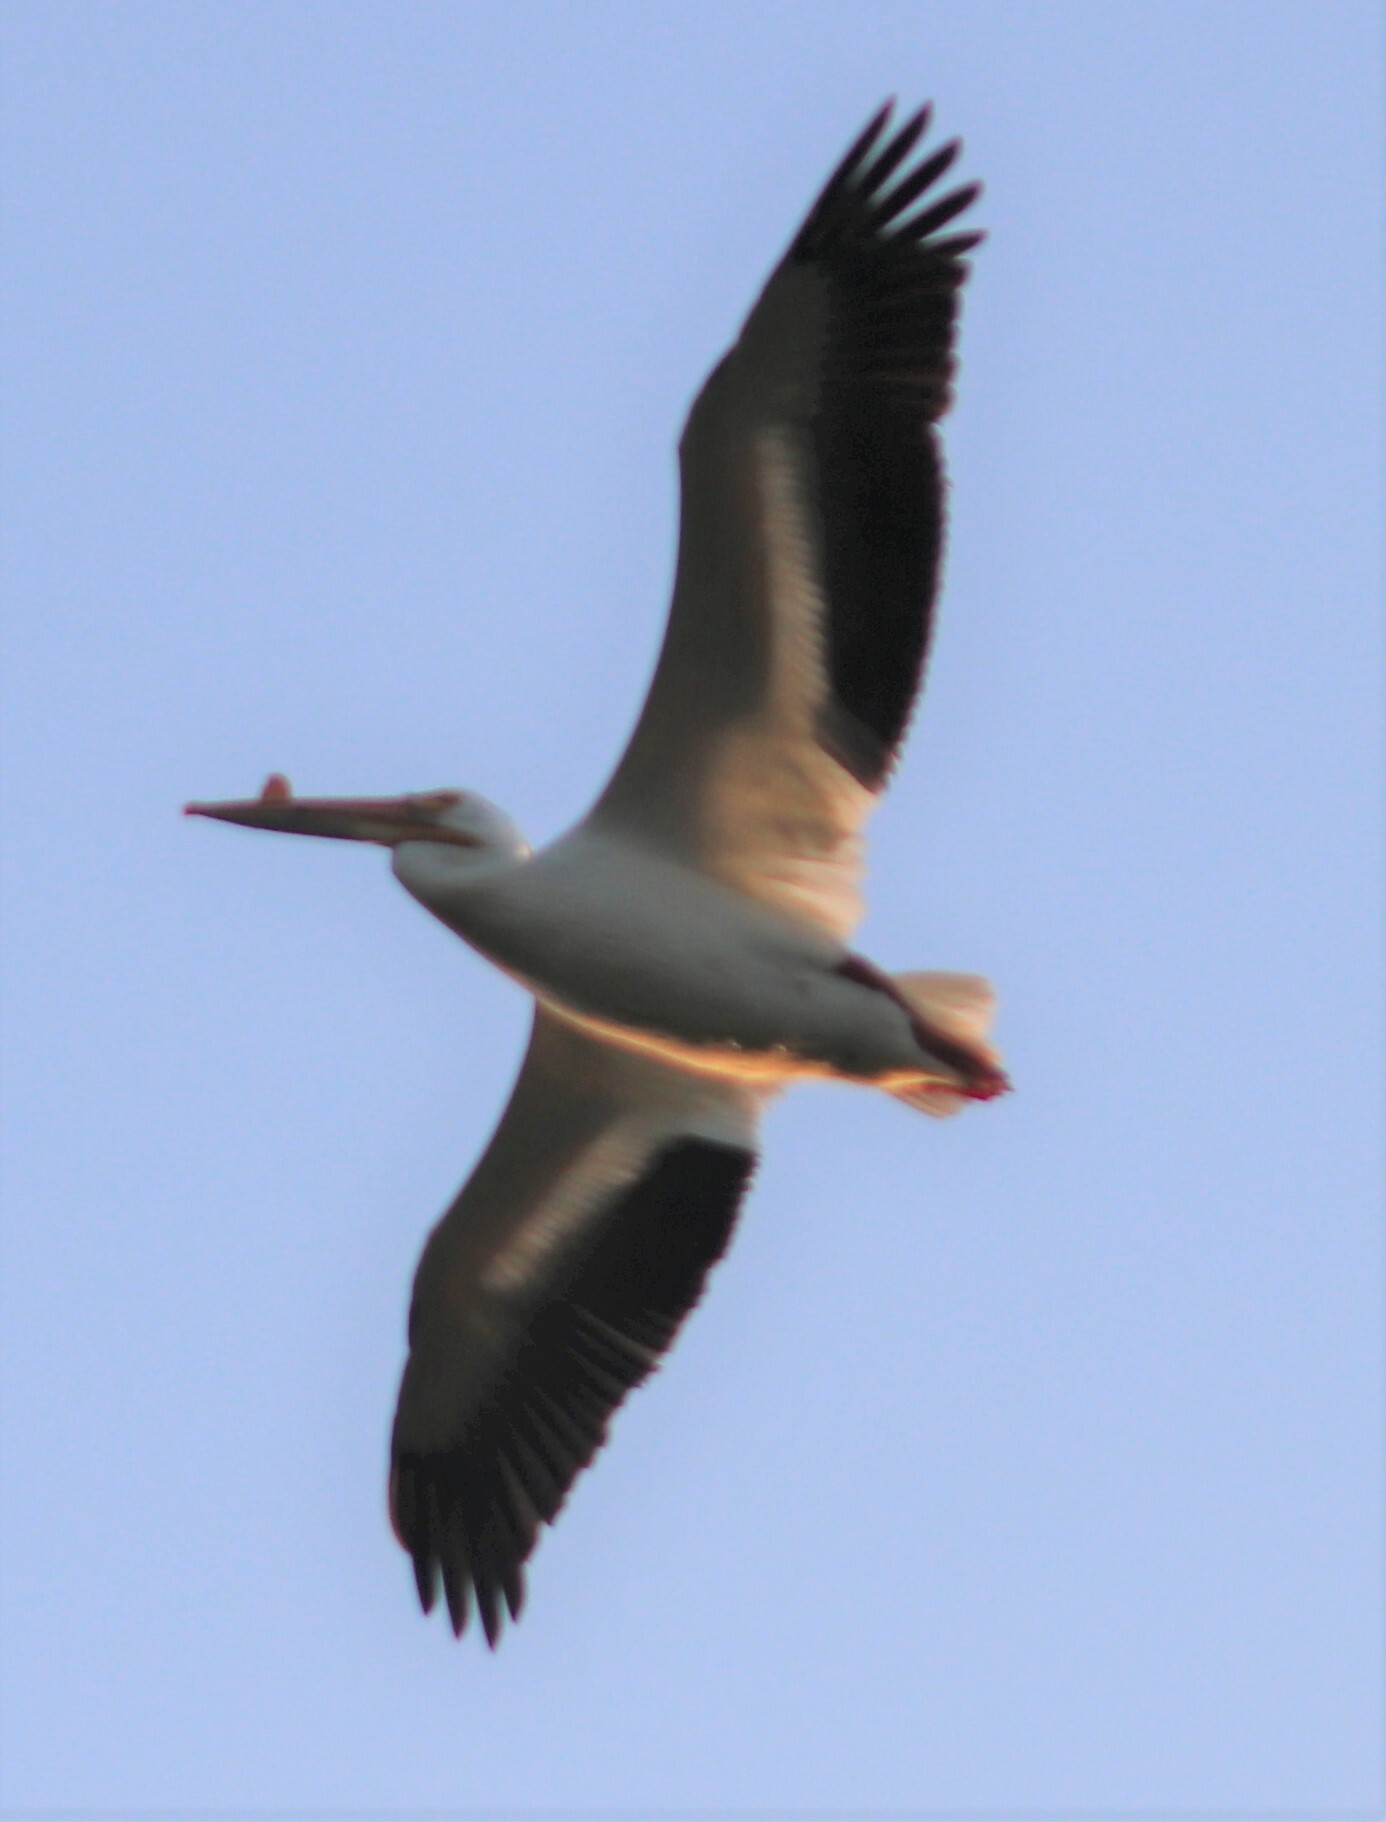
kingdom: Animalia
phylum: Chordata
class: Aves
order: Pelecaniformes
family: Pelecanidae
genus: Pelecanus
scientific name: Pelecanus erythrorhynchos
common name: American white pelican
